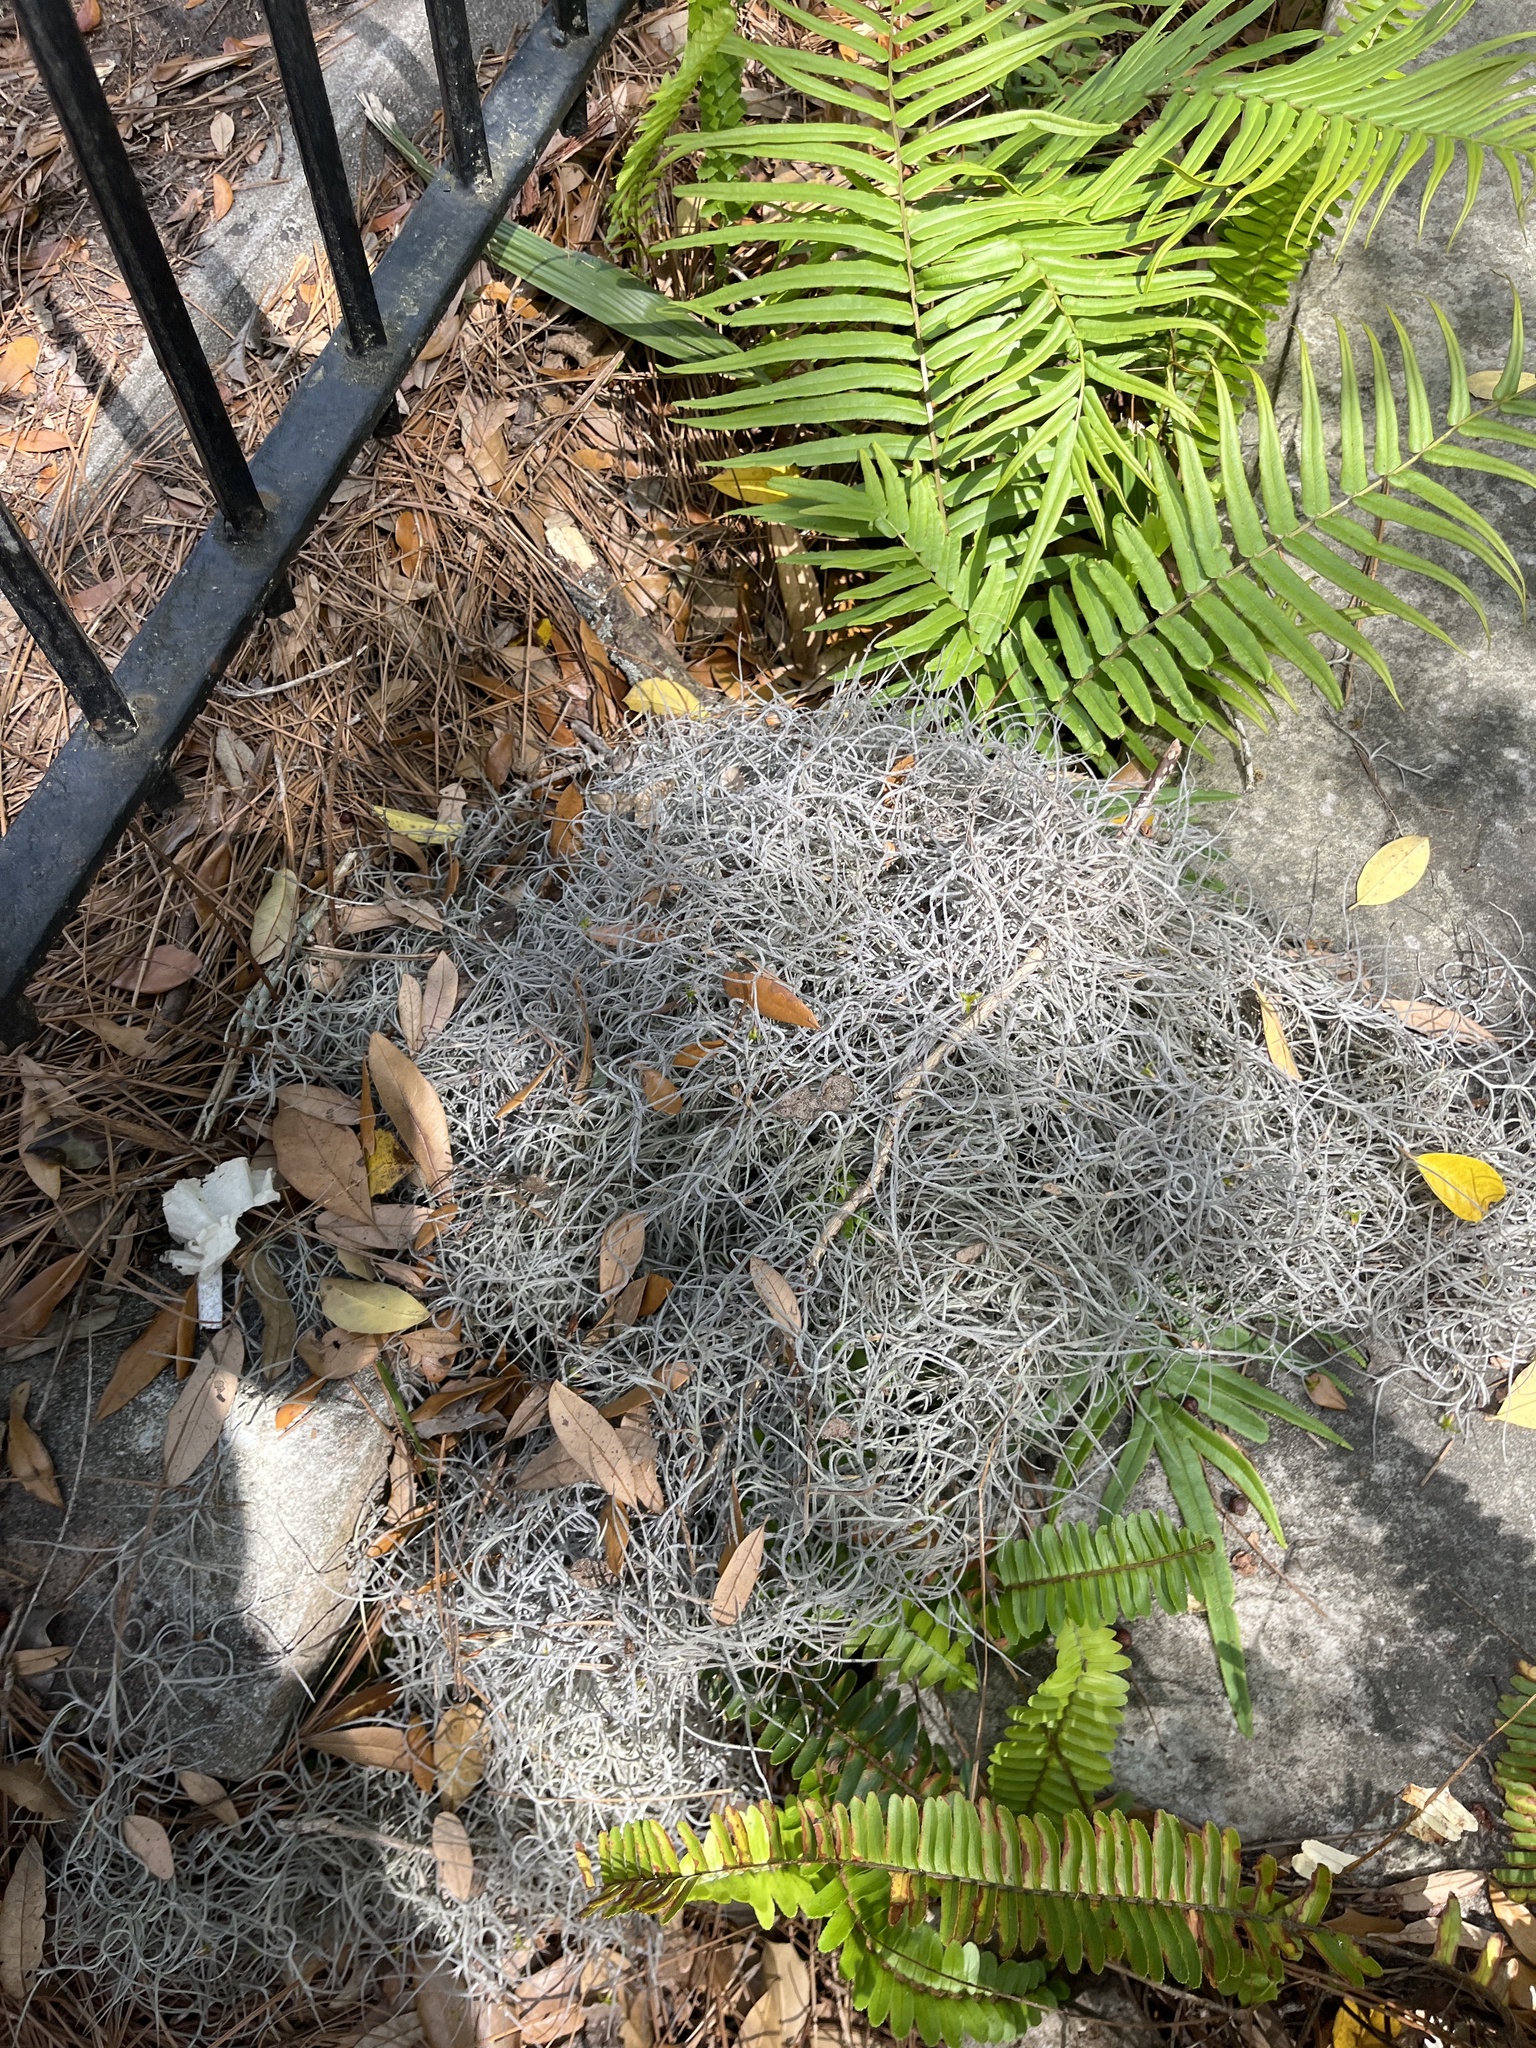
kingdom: Plantae
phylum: Tracheophyta
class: Liliopsida
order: Poales
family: Bromeliaceae
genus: Tillandsia
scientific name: Tillandsia usneoides
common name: Spanish moss
